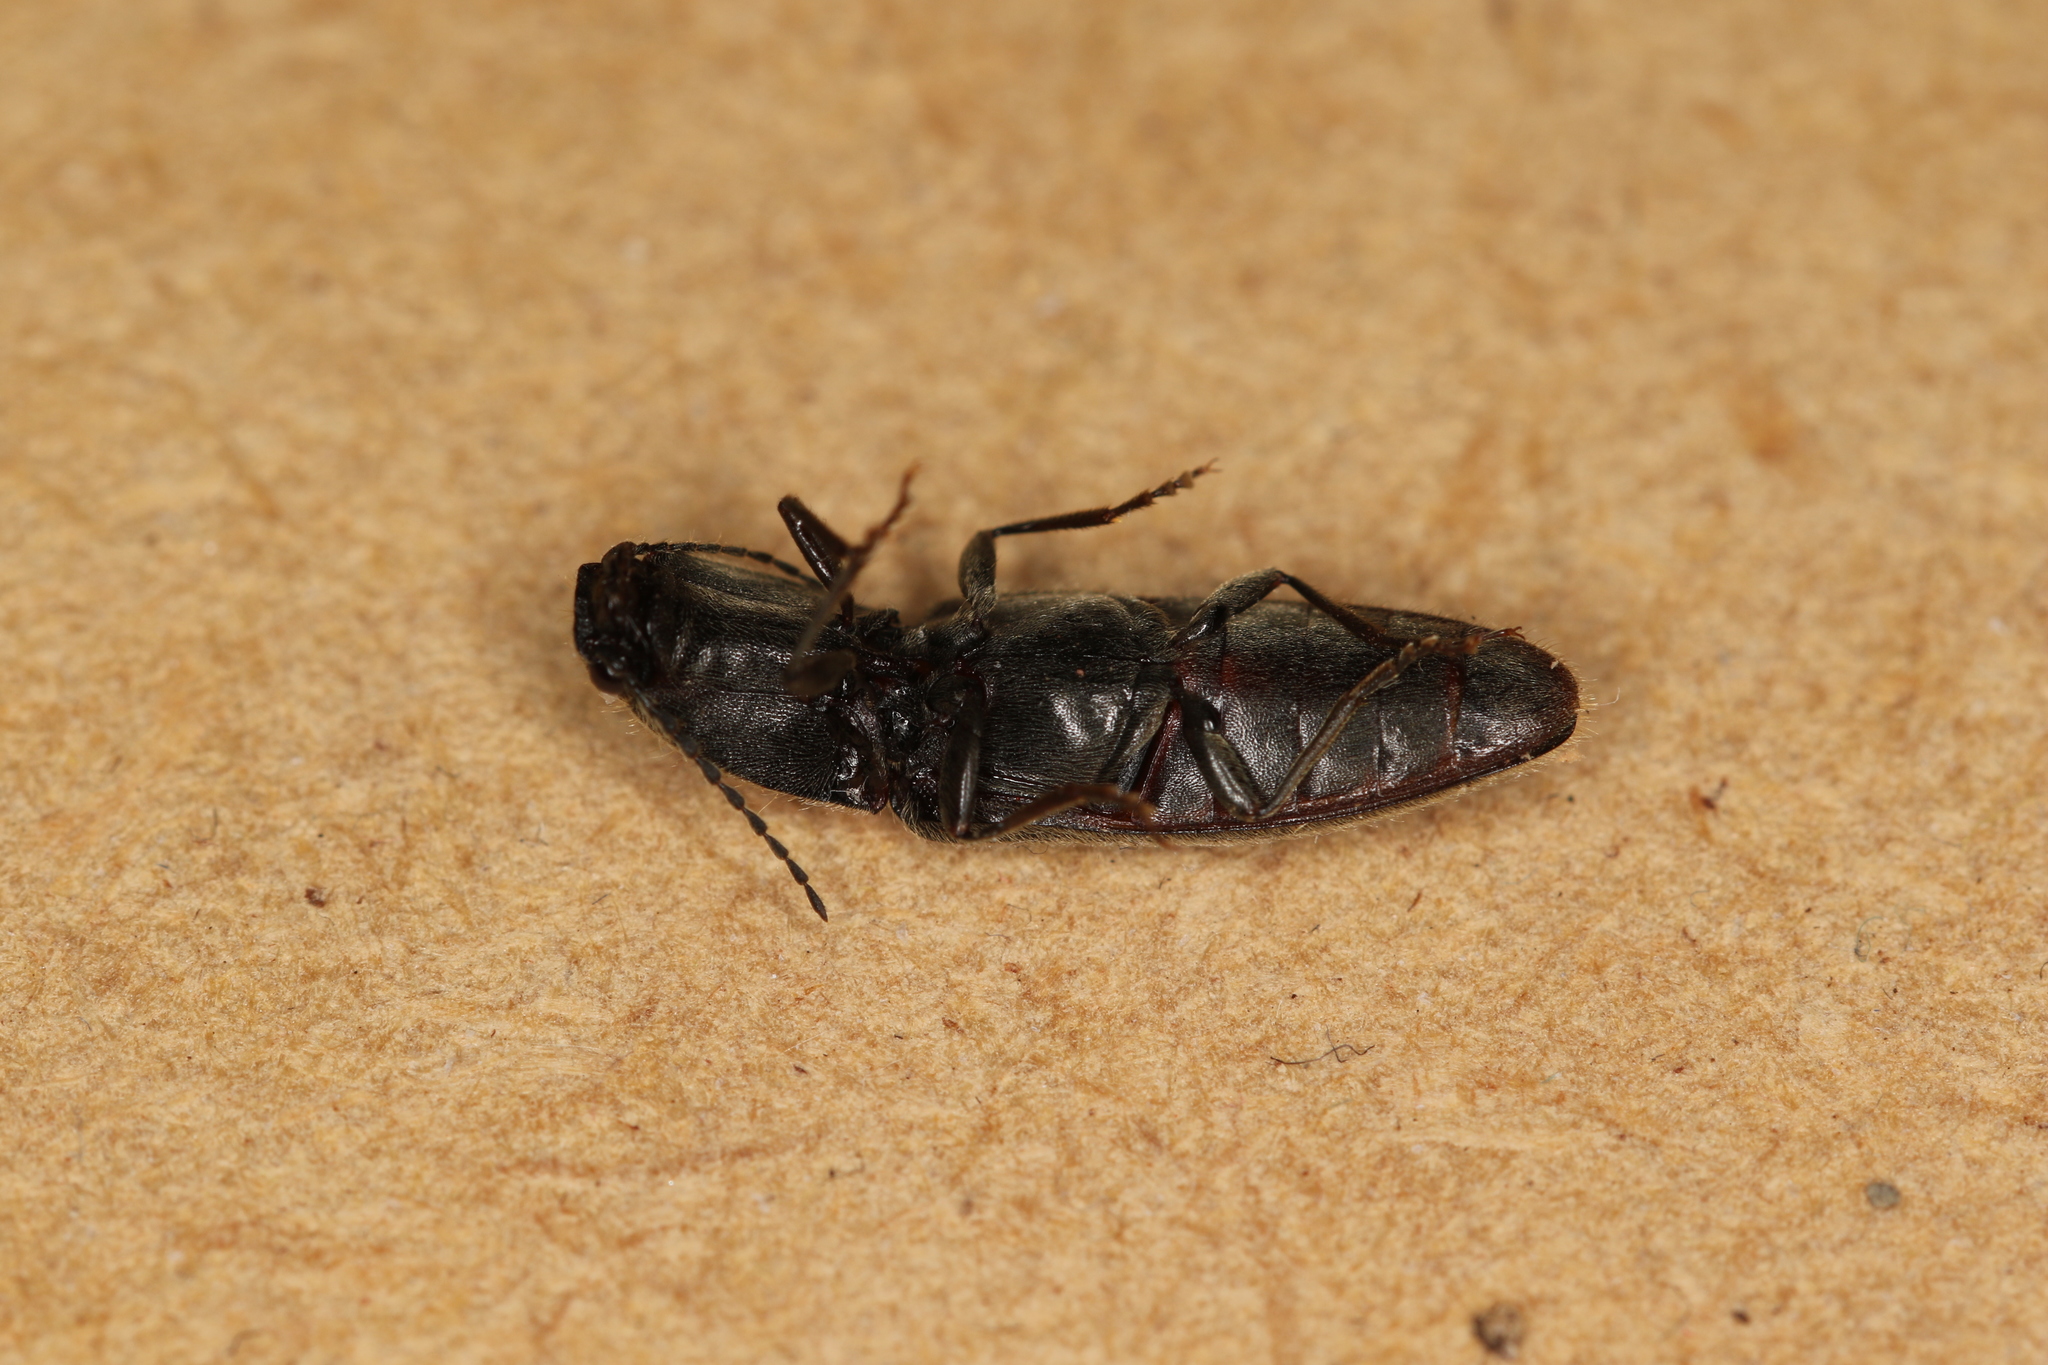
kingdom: Animalia
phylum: Arthropoda
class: Insecta
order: Coleoptera
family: Elateridae
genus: Athous
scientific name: Athous haemorrhoidalis
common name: Red-brown click beetle
